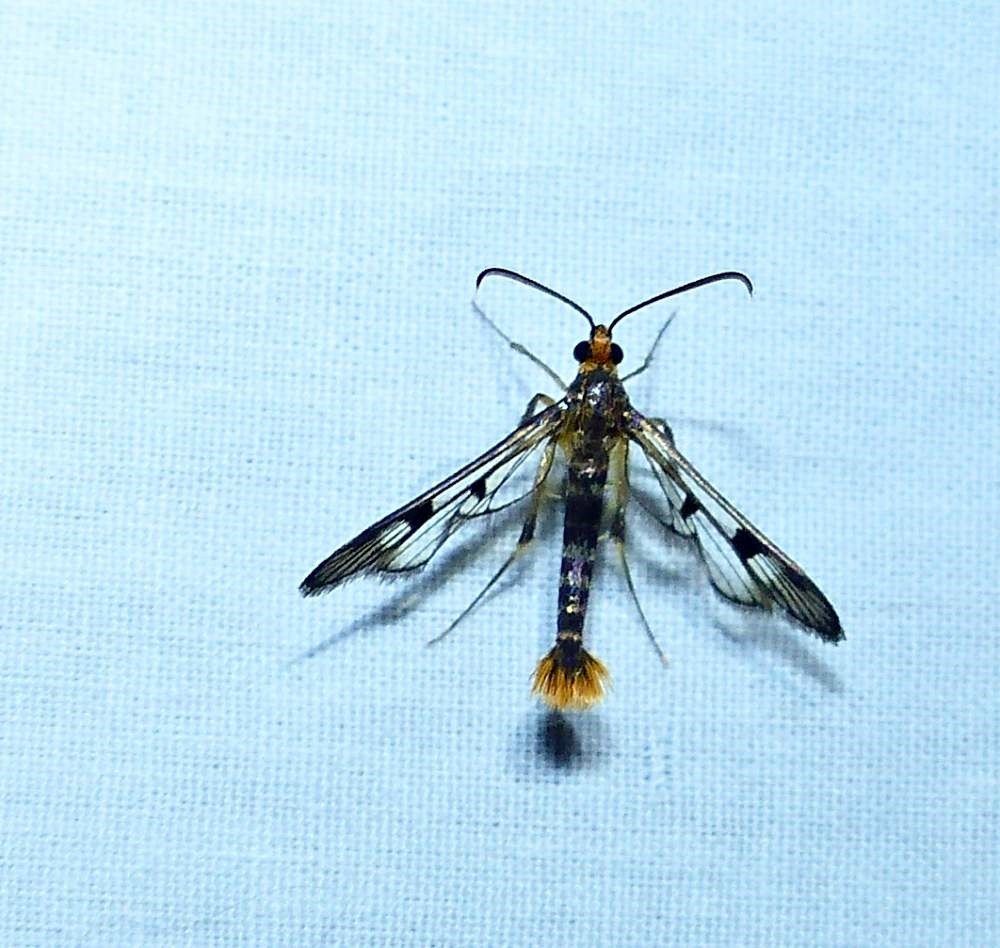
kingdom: Animalia
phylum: Arthropoda
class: Insecta
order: Lepidoptera
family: Sesiidae
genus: Synanthedon
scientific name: Synanthedon acerni
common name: Maple callus borer moth
